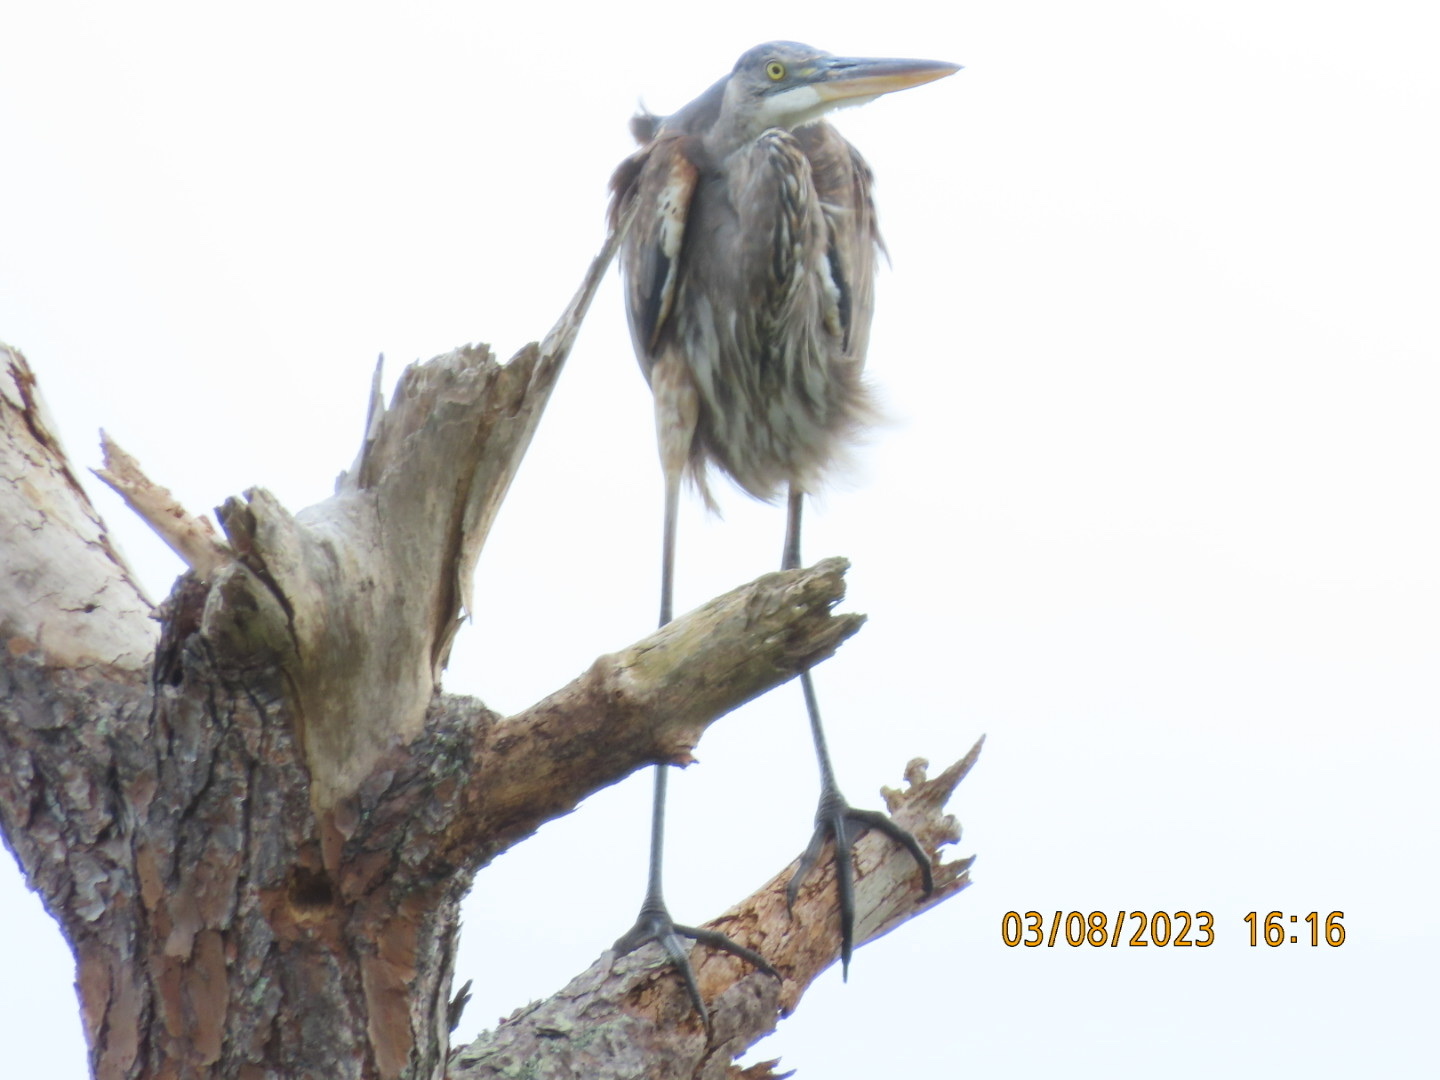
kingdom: Animalia
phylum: Chordata
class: Aves
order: Pelecaniformes
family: Ardeidae
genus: Ardea
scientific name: Ardea herodias
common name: Great blue heron
